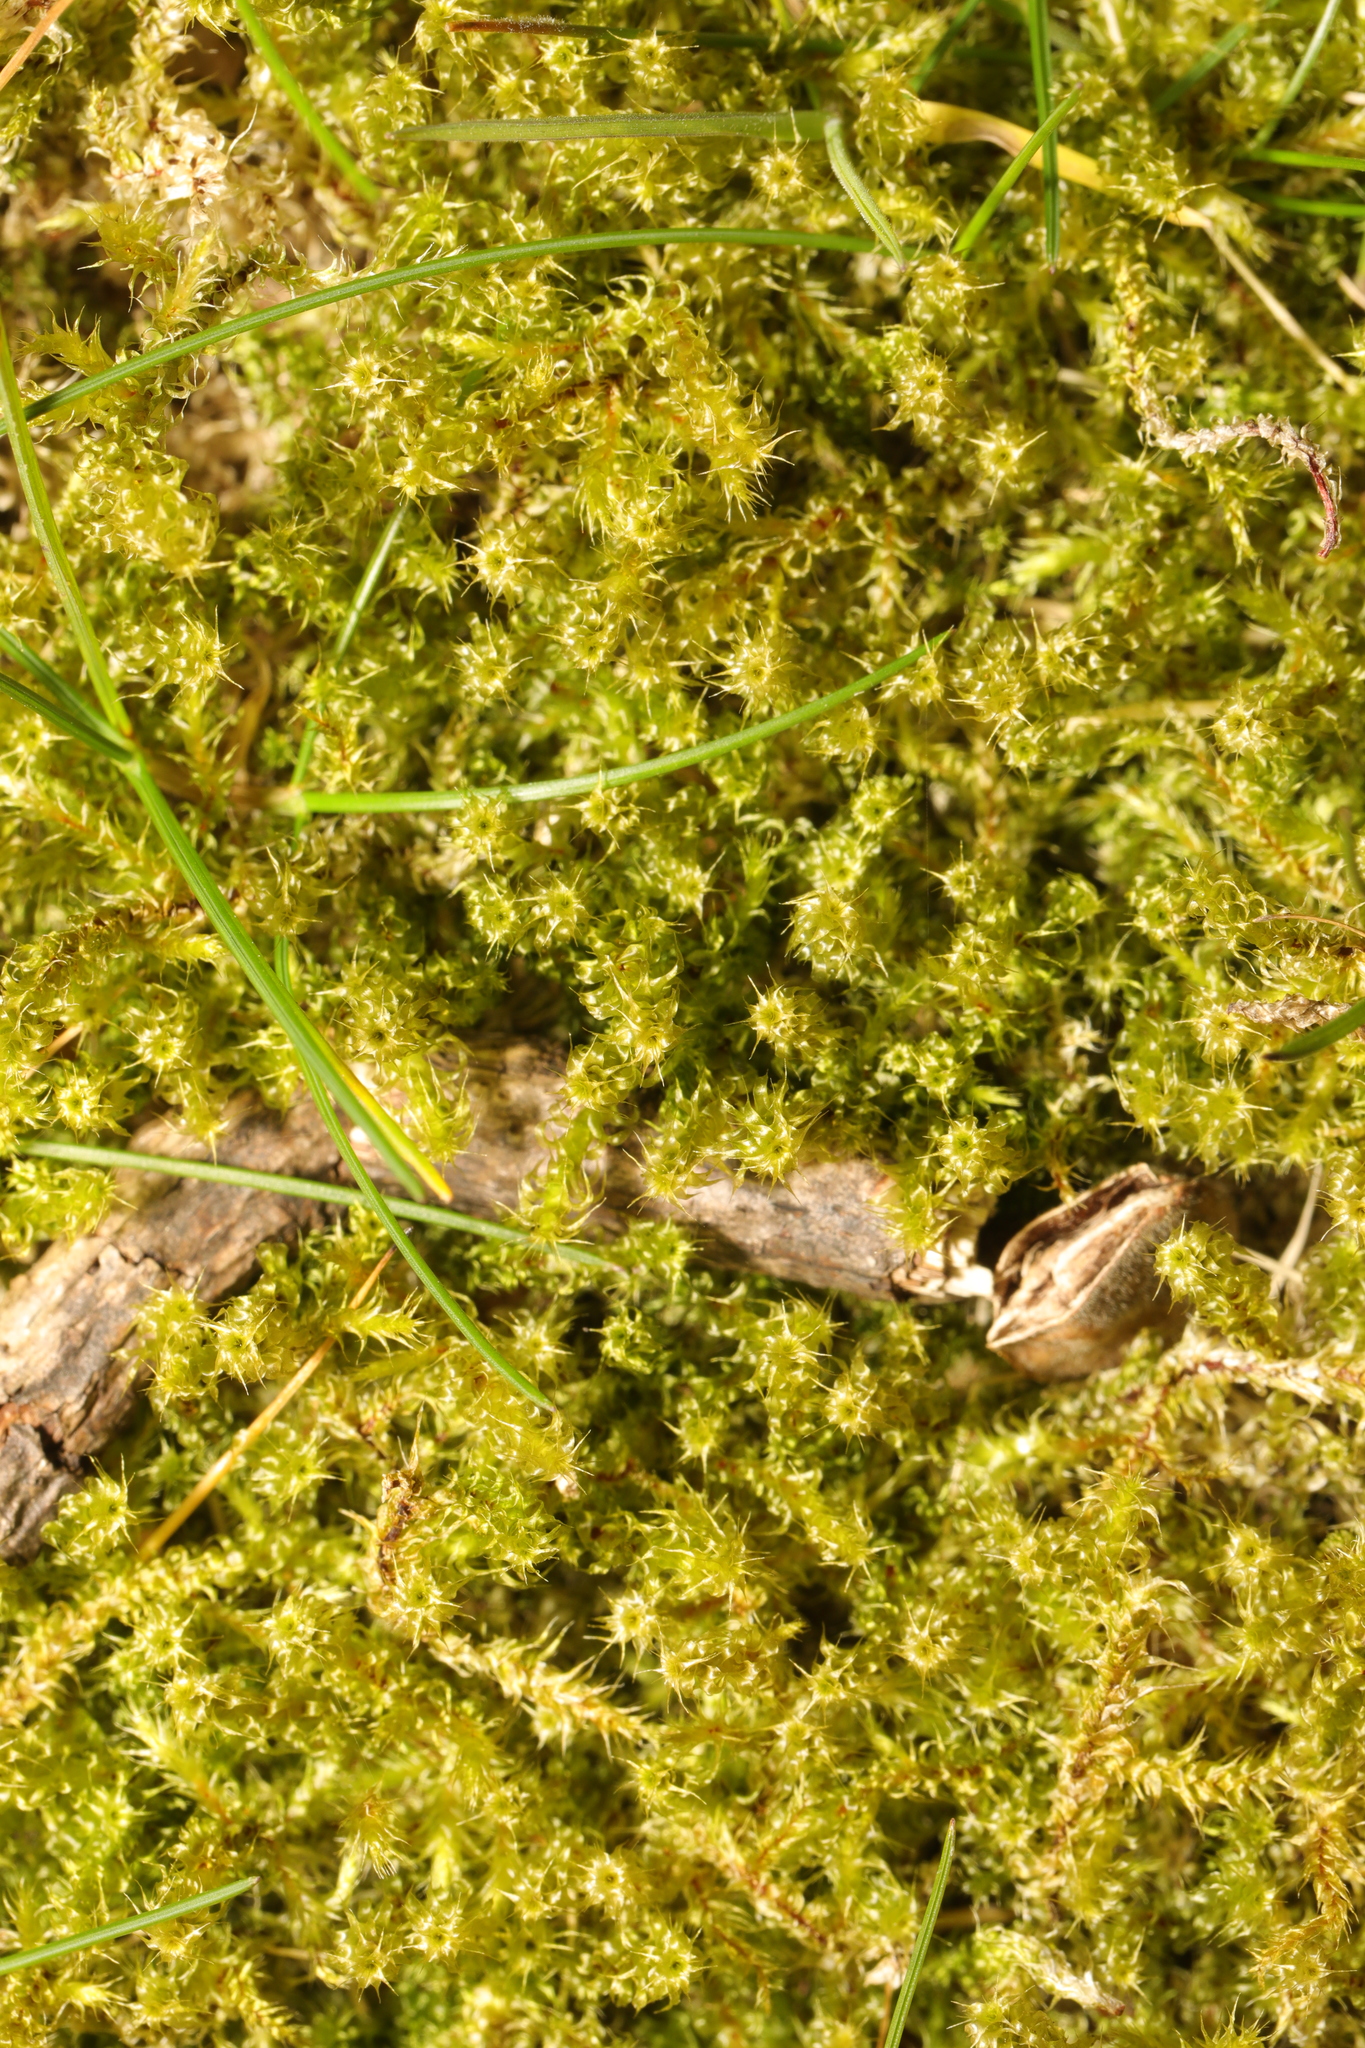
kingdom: Plantae
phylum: Bryophyta
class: Bryopsida
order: Hypnales
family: Hylocomiaceae
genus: Rhytidiadelphus
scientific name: Rhytidiadelphus squarrosus
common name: Springy turf-moss
